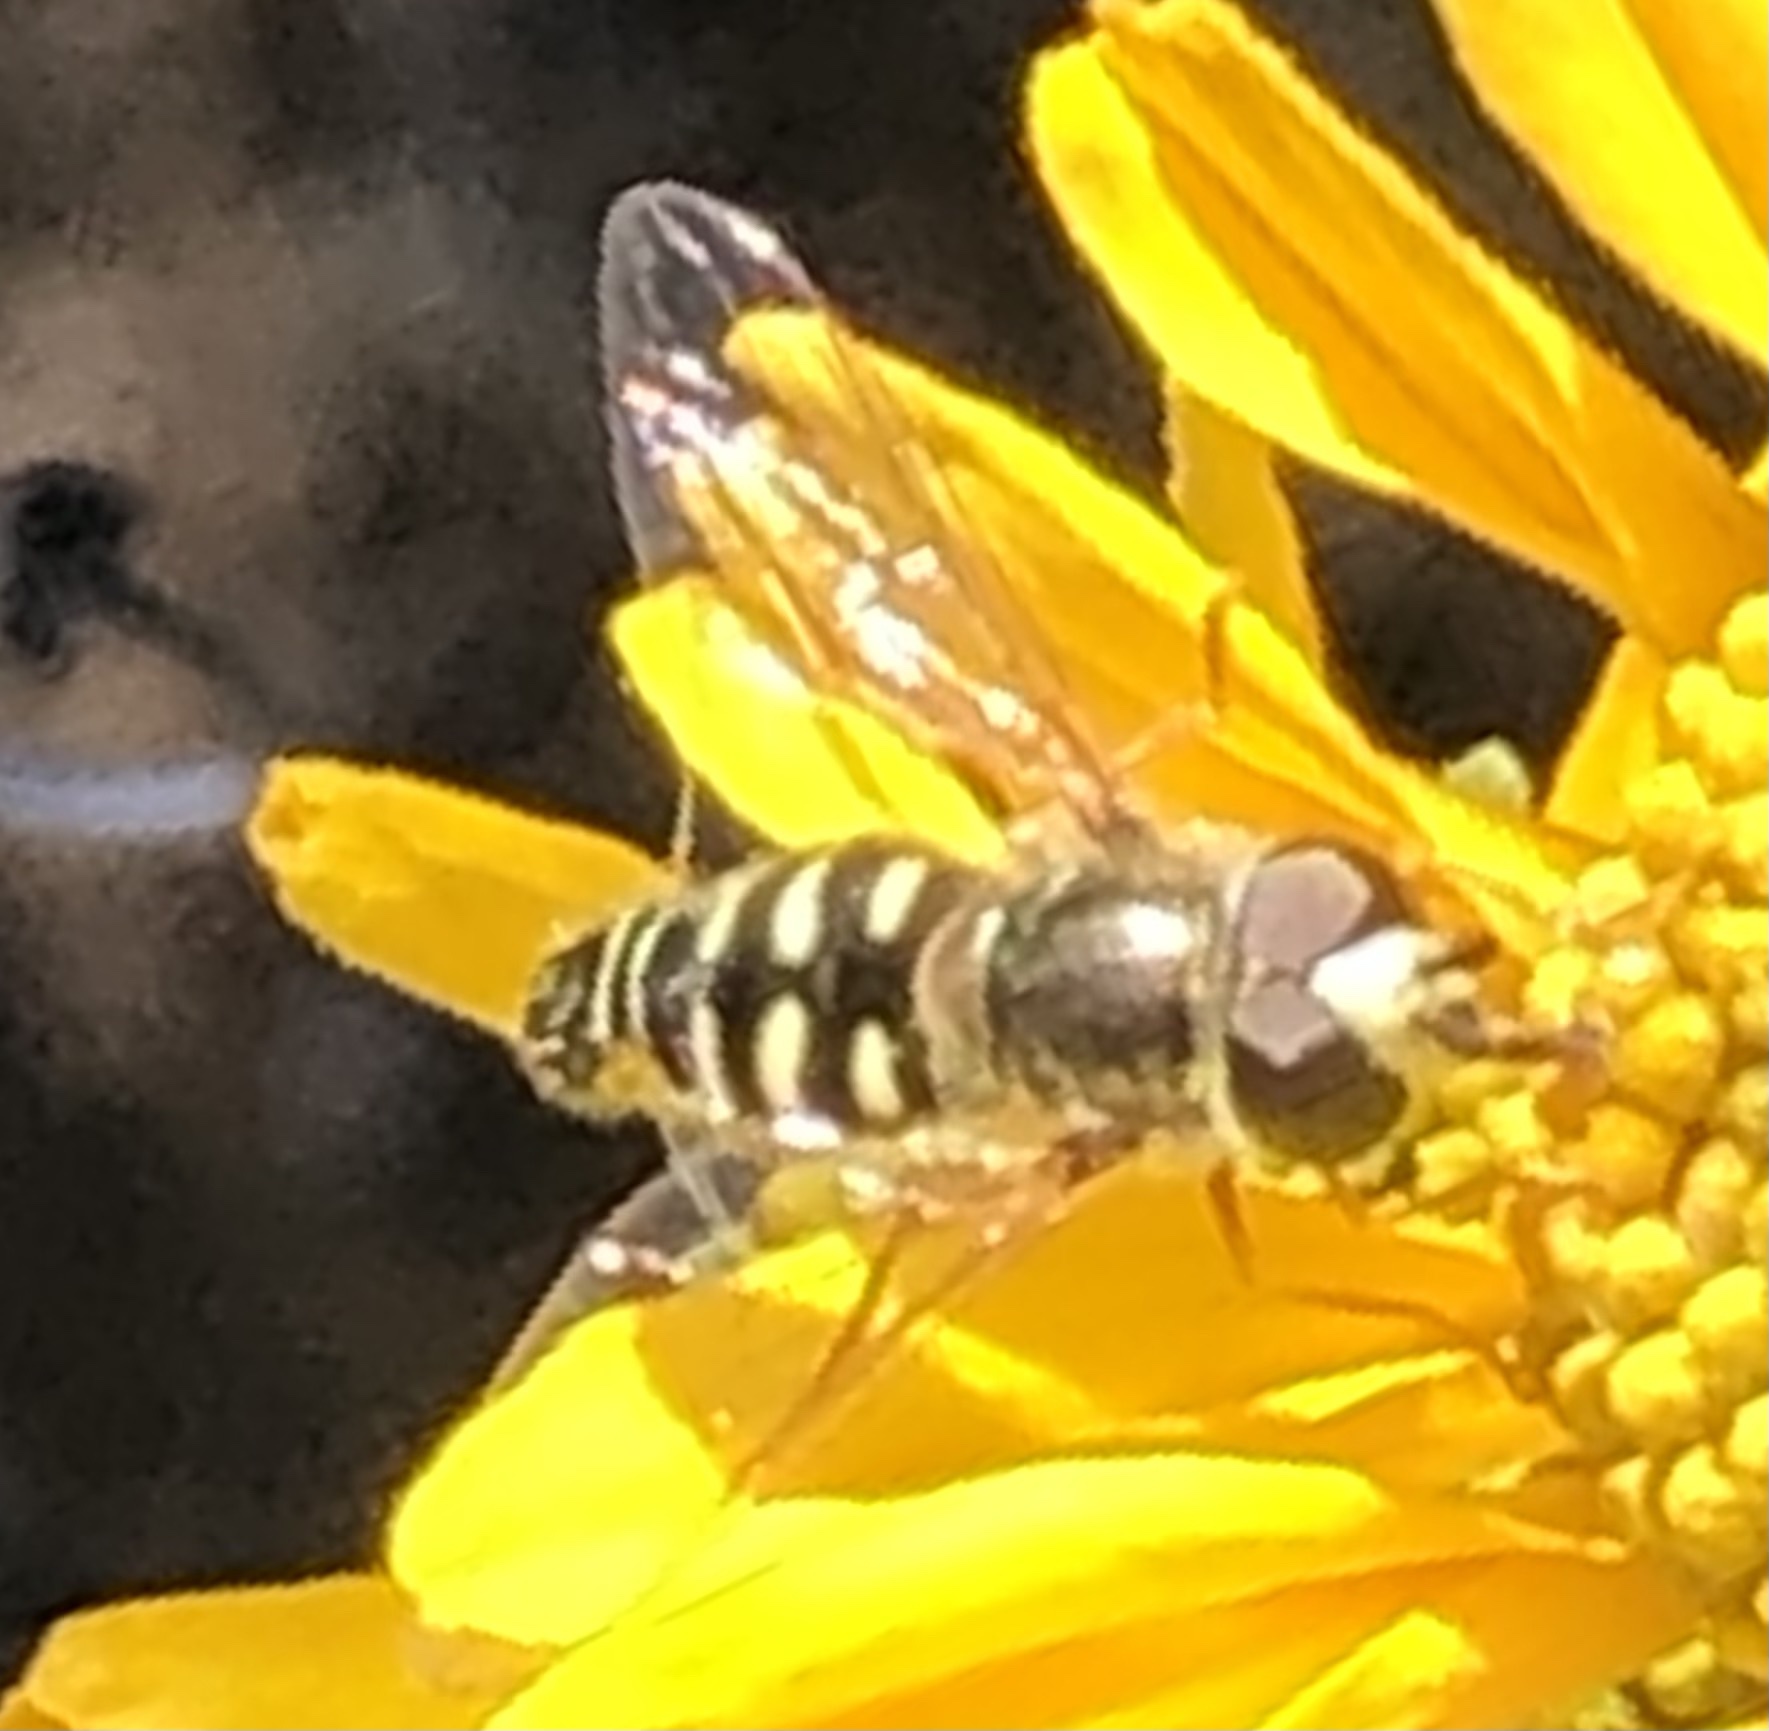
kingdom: Animalia
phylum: Arthropoda
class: Insecta
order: Diptera
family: Syrphidae
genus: Eupeodes
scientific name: Eupeodes volucris
